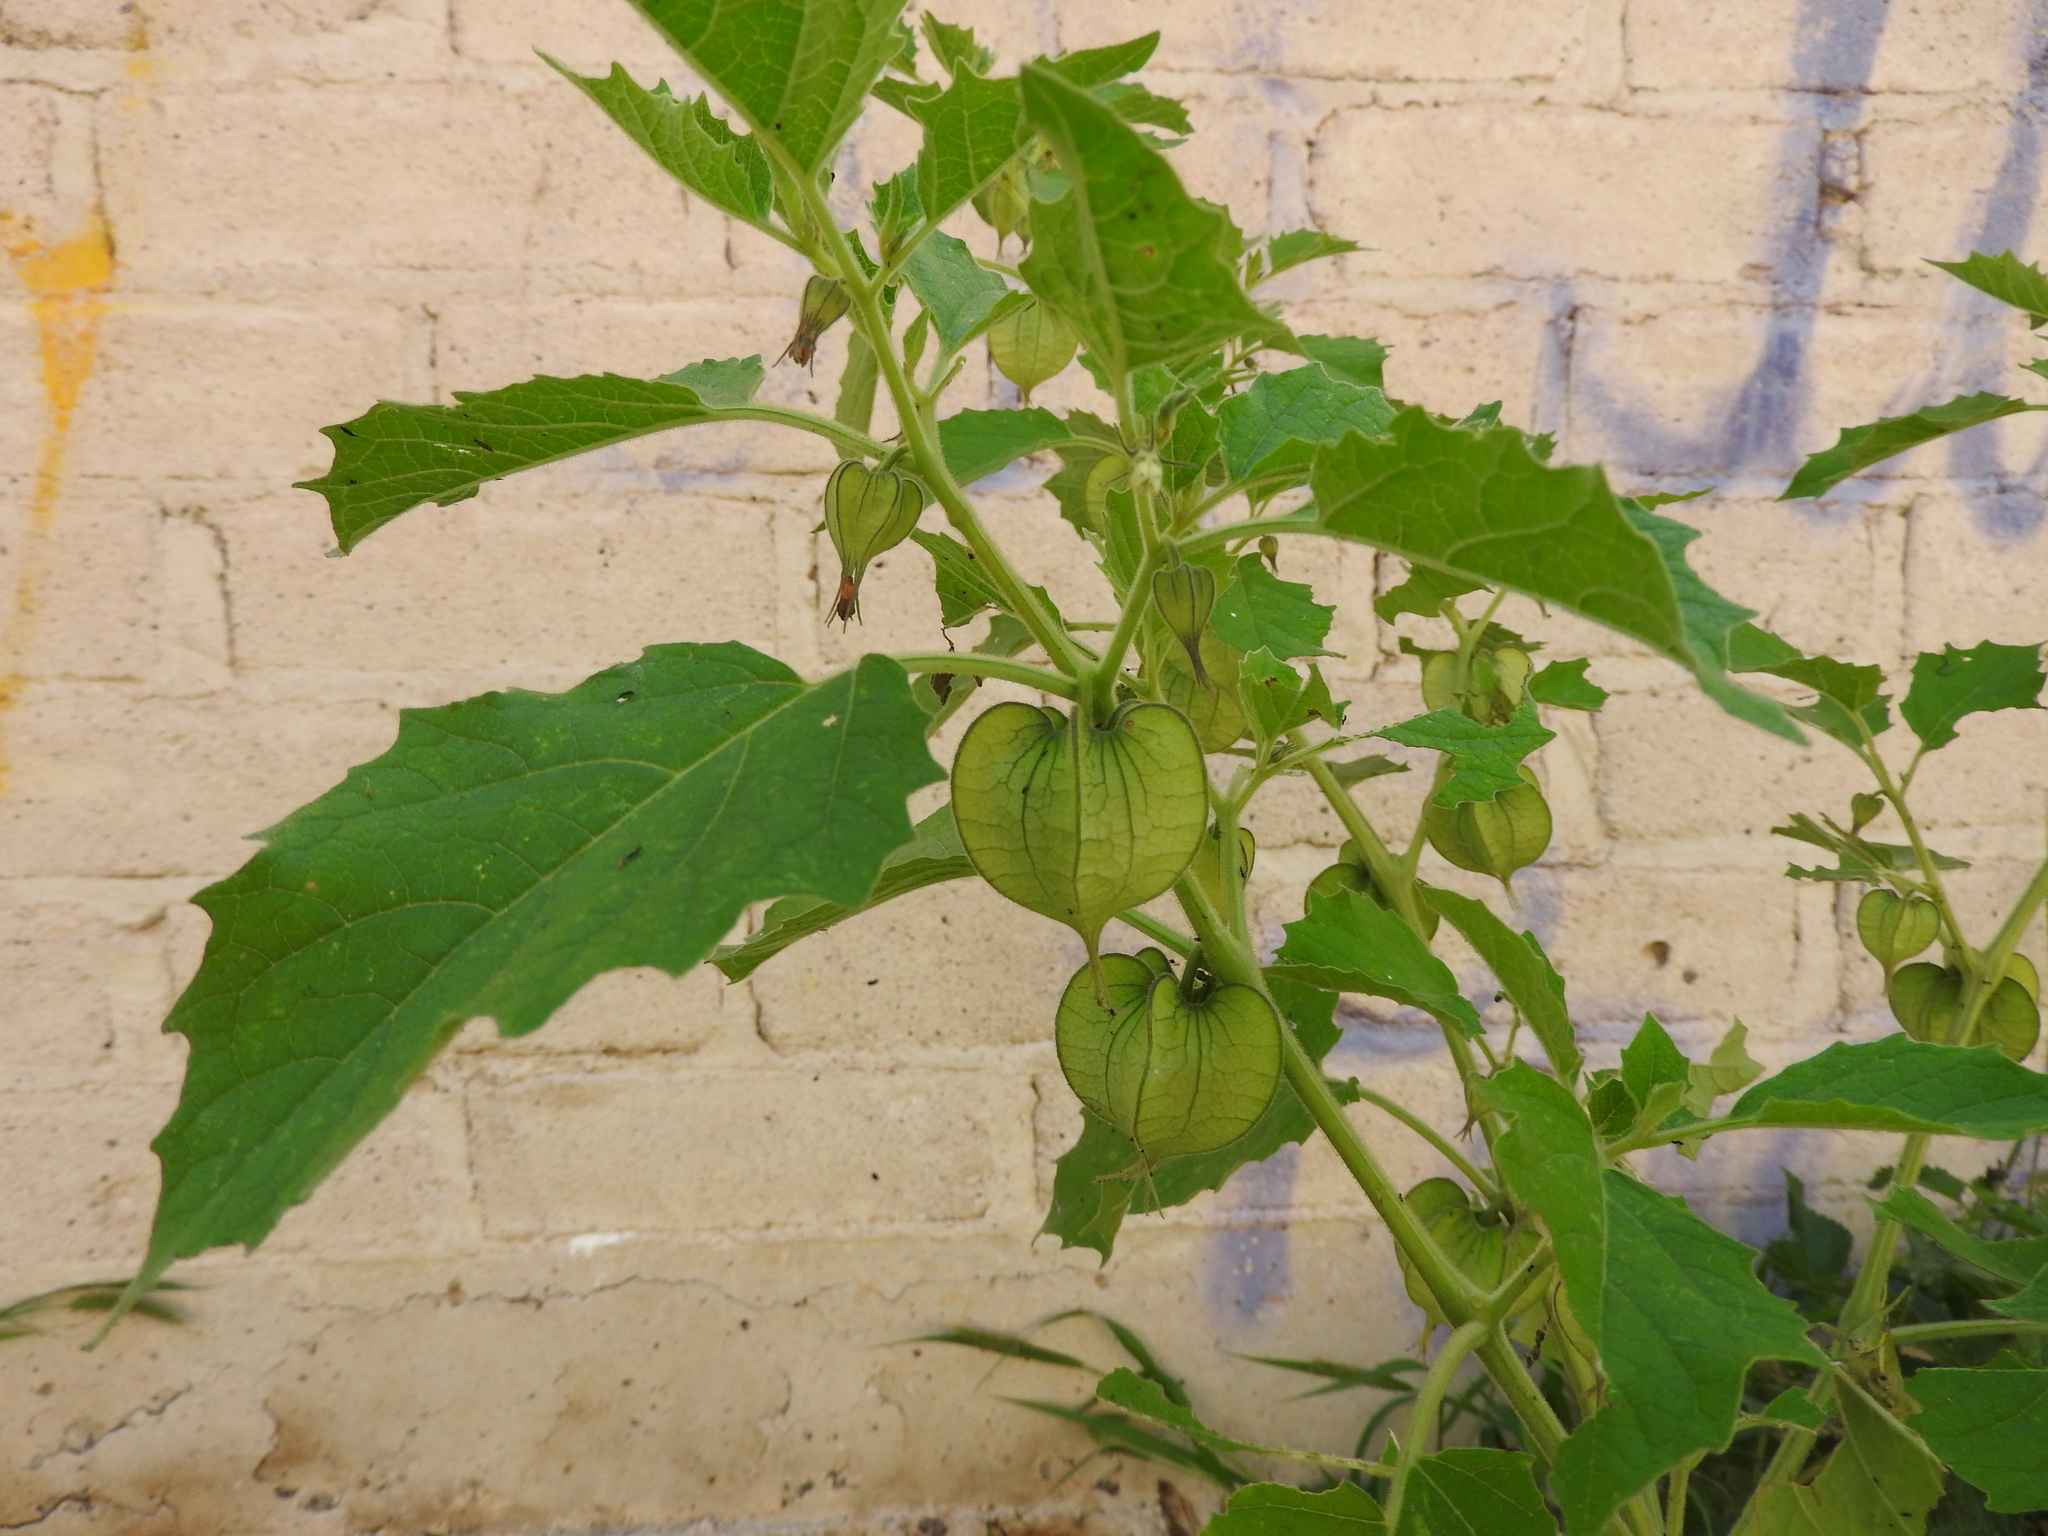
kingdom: Plantae
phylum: Tracheophyta
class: Magnoliopsida
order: Solanales
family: Solanaceae
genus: Physalis
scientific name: Physalis nicandroides
